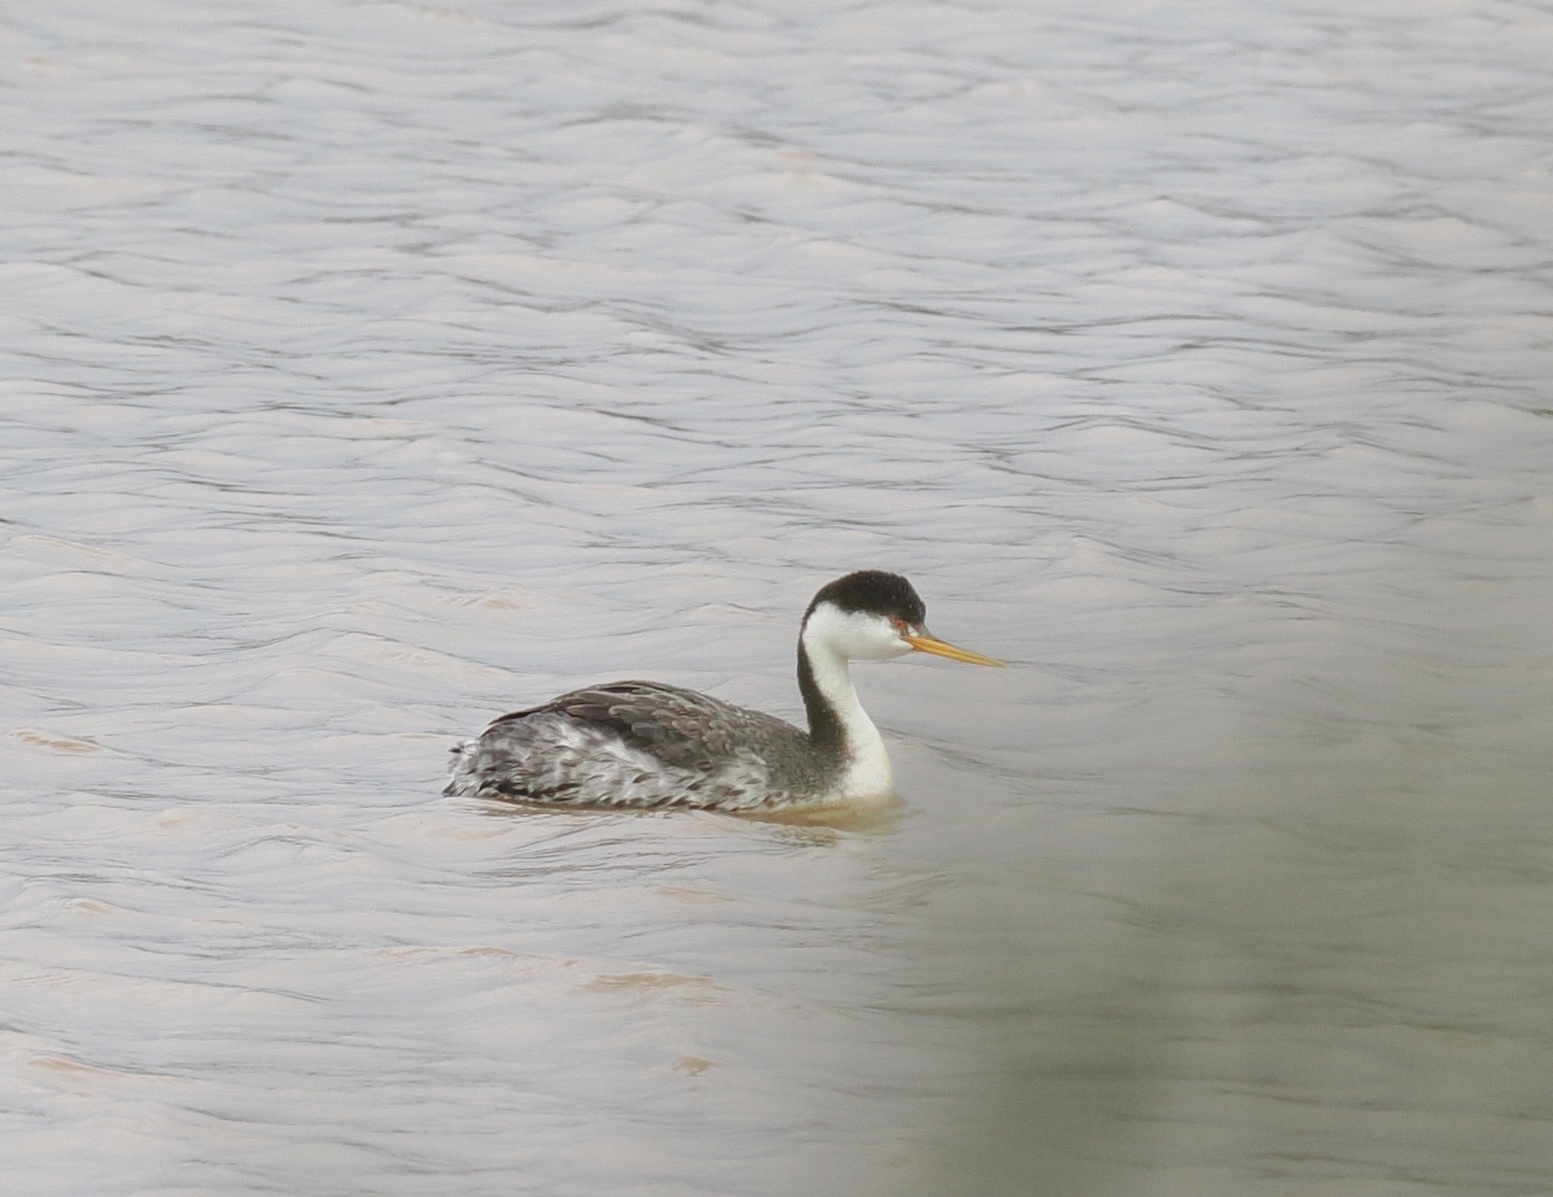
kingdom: Animalia
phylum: Chordata
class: Aves
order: Podicipediformes
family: Podicipedidae
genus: Aechmophorus
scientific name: Aechmophorus clarkii
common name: Clark's grebe
